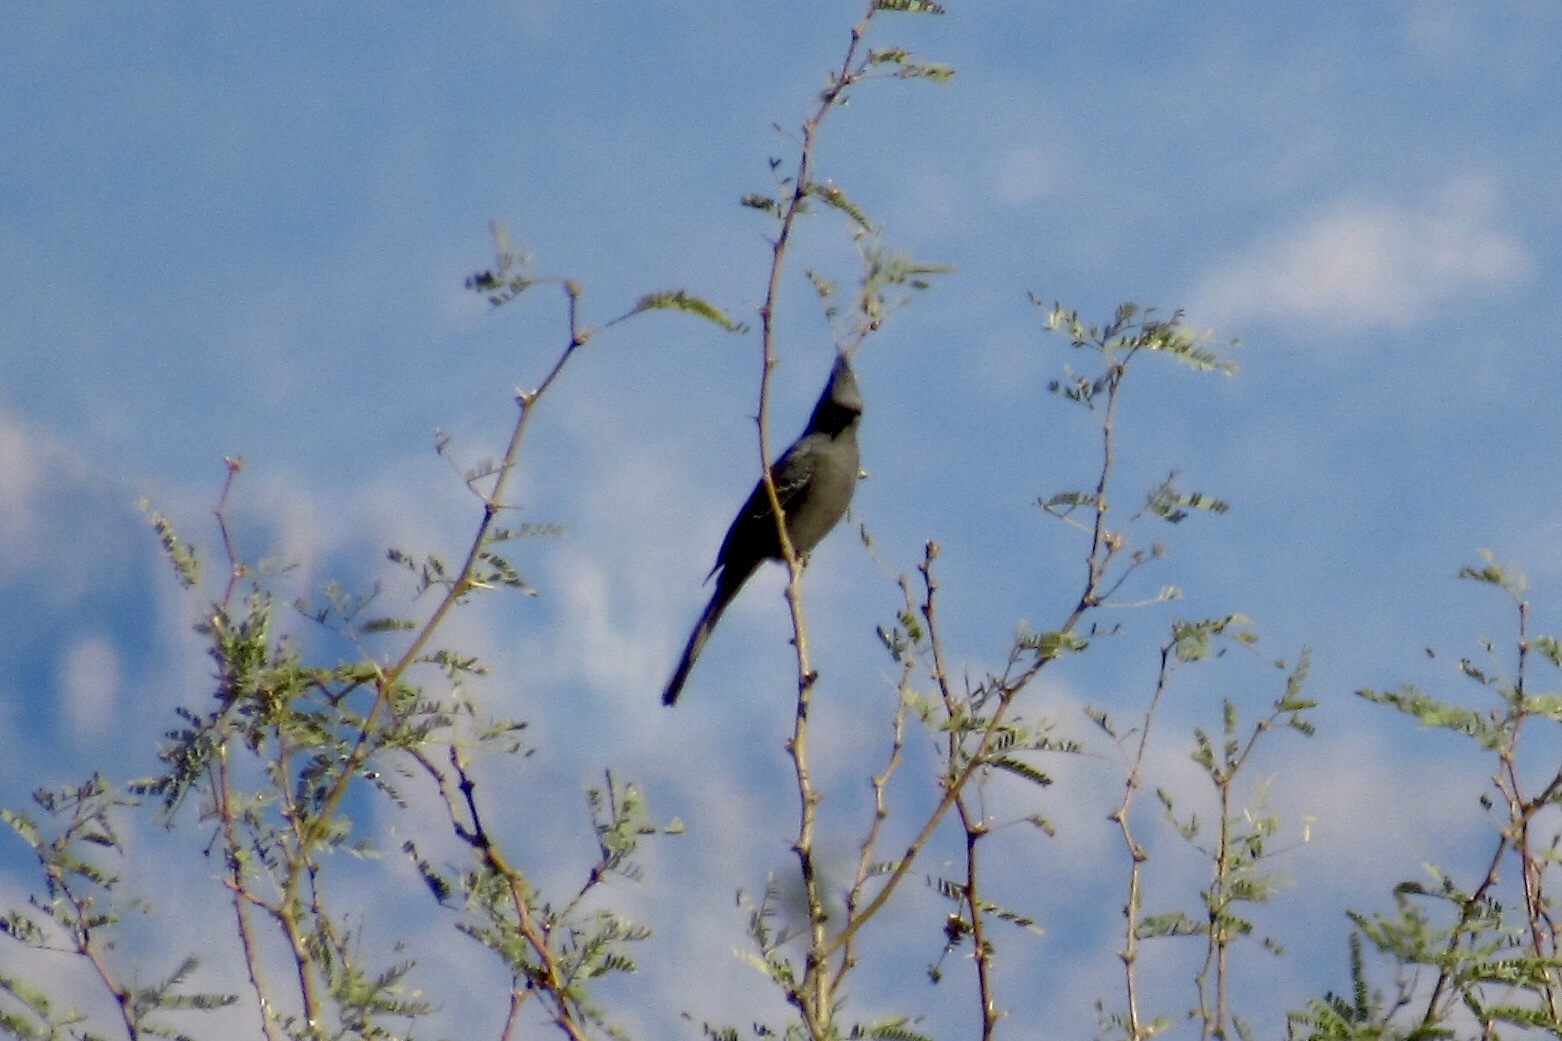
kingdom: Animalia
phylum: Chordata
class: Aves
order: Passeriformes
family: Ptilogonatidae
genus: Phainopepla
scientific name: Phainopepla nitens
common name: Phainopepla
